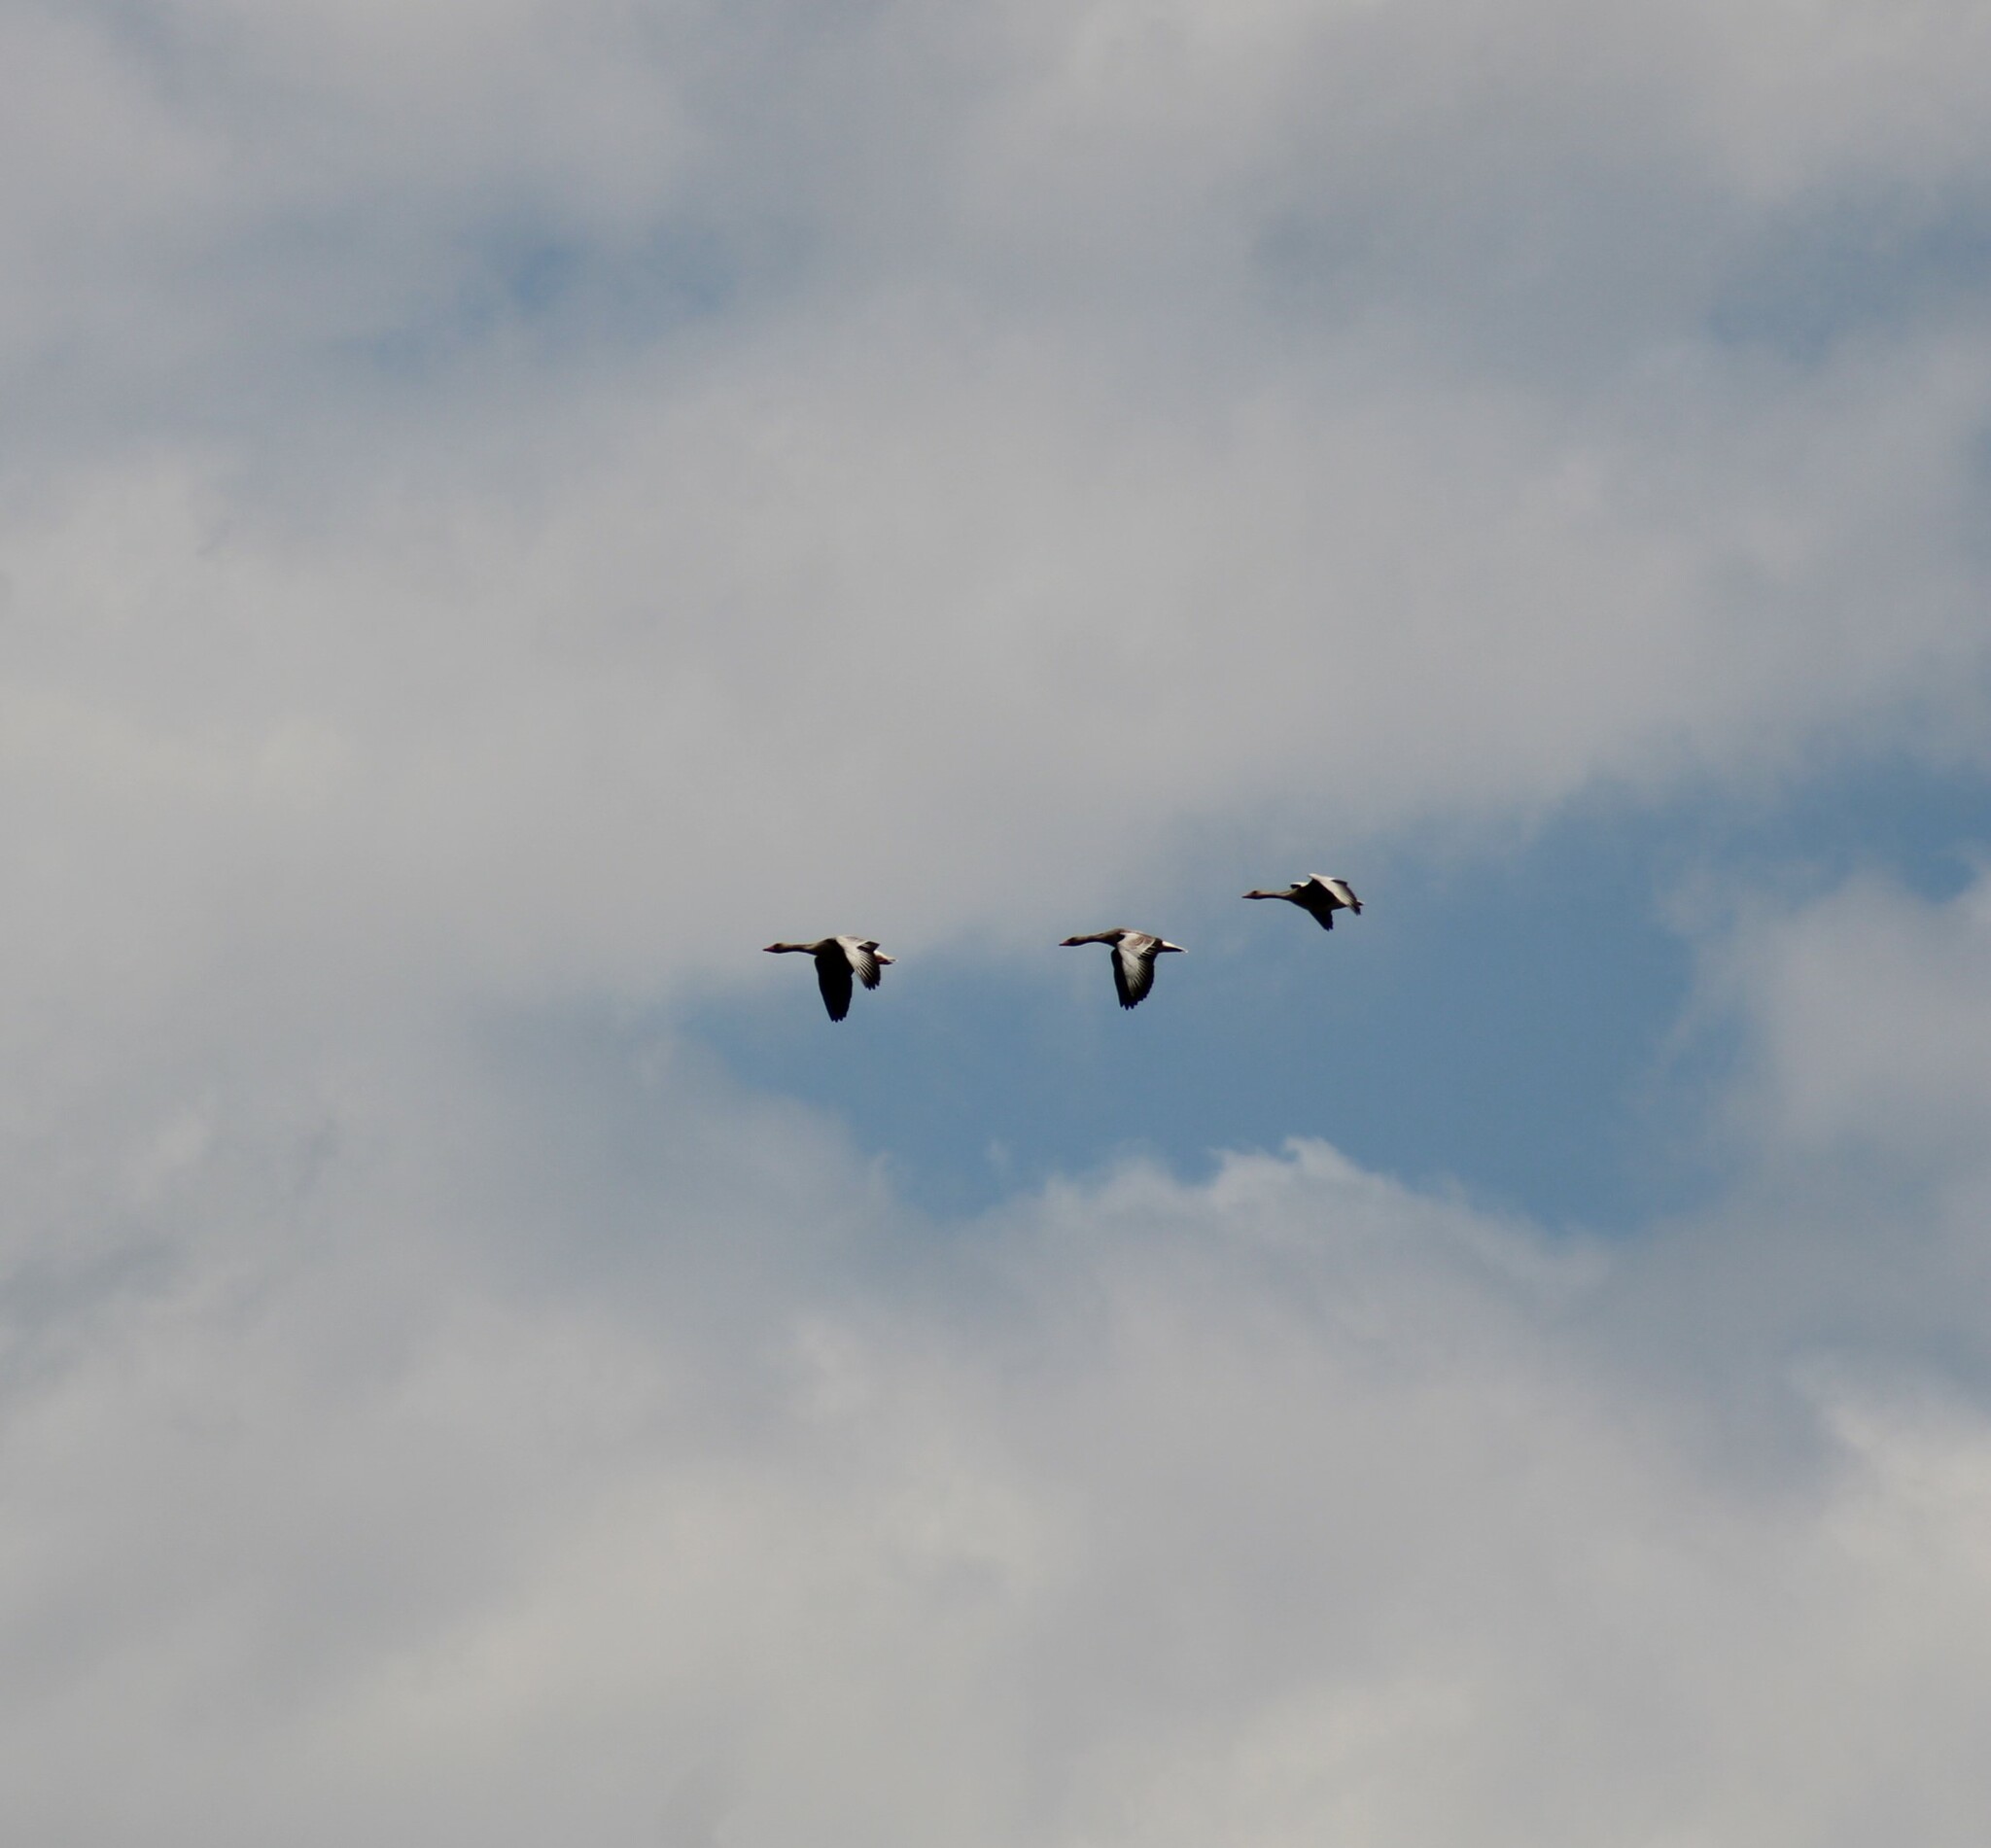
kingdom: Animalia
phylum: Chordata
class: Aves
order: Anseriformes
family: Anatidae
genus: Anser
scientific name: Anser anser
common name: Greylag goose
